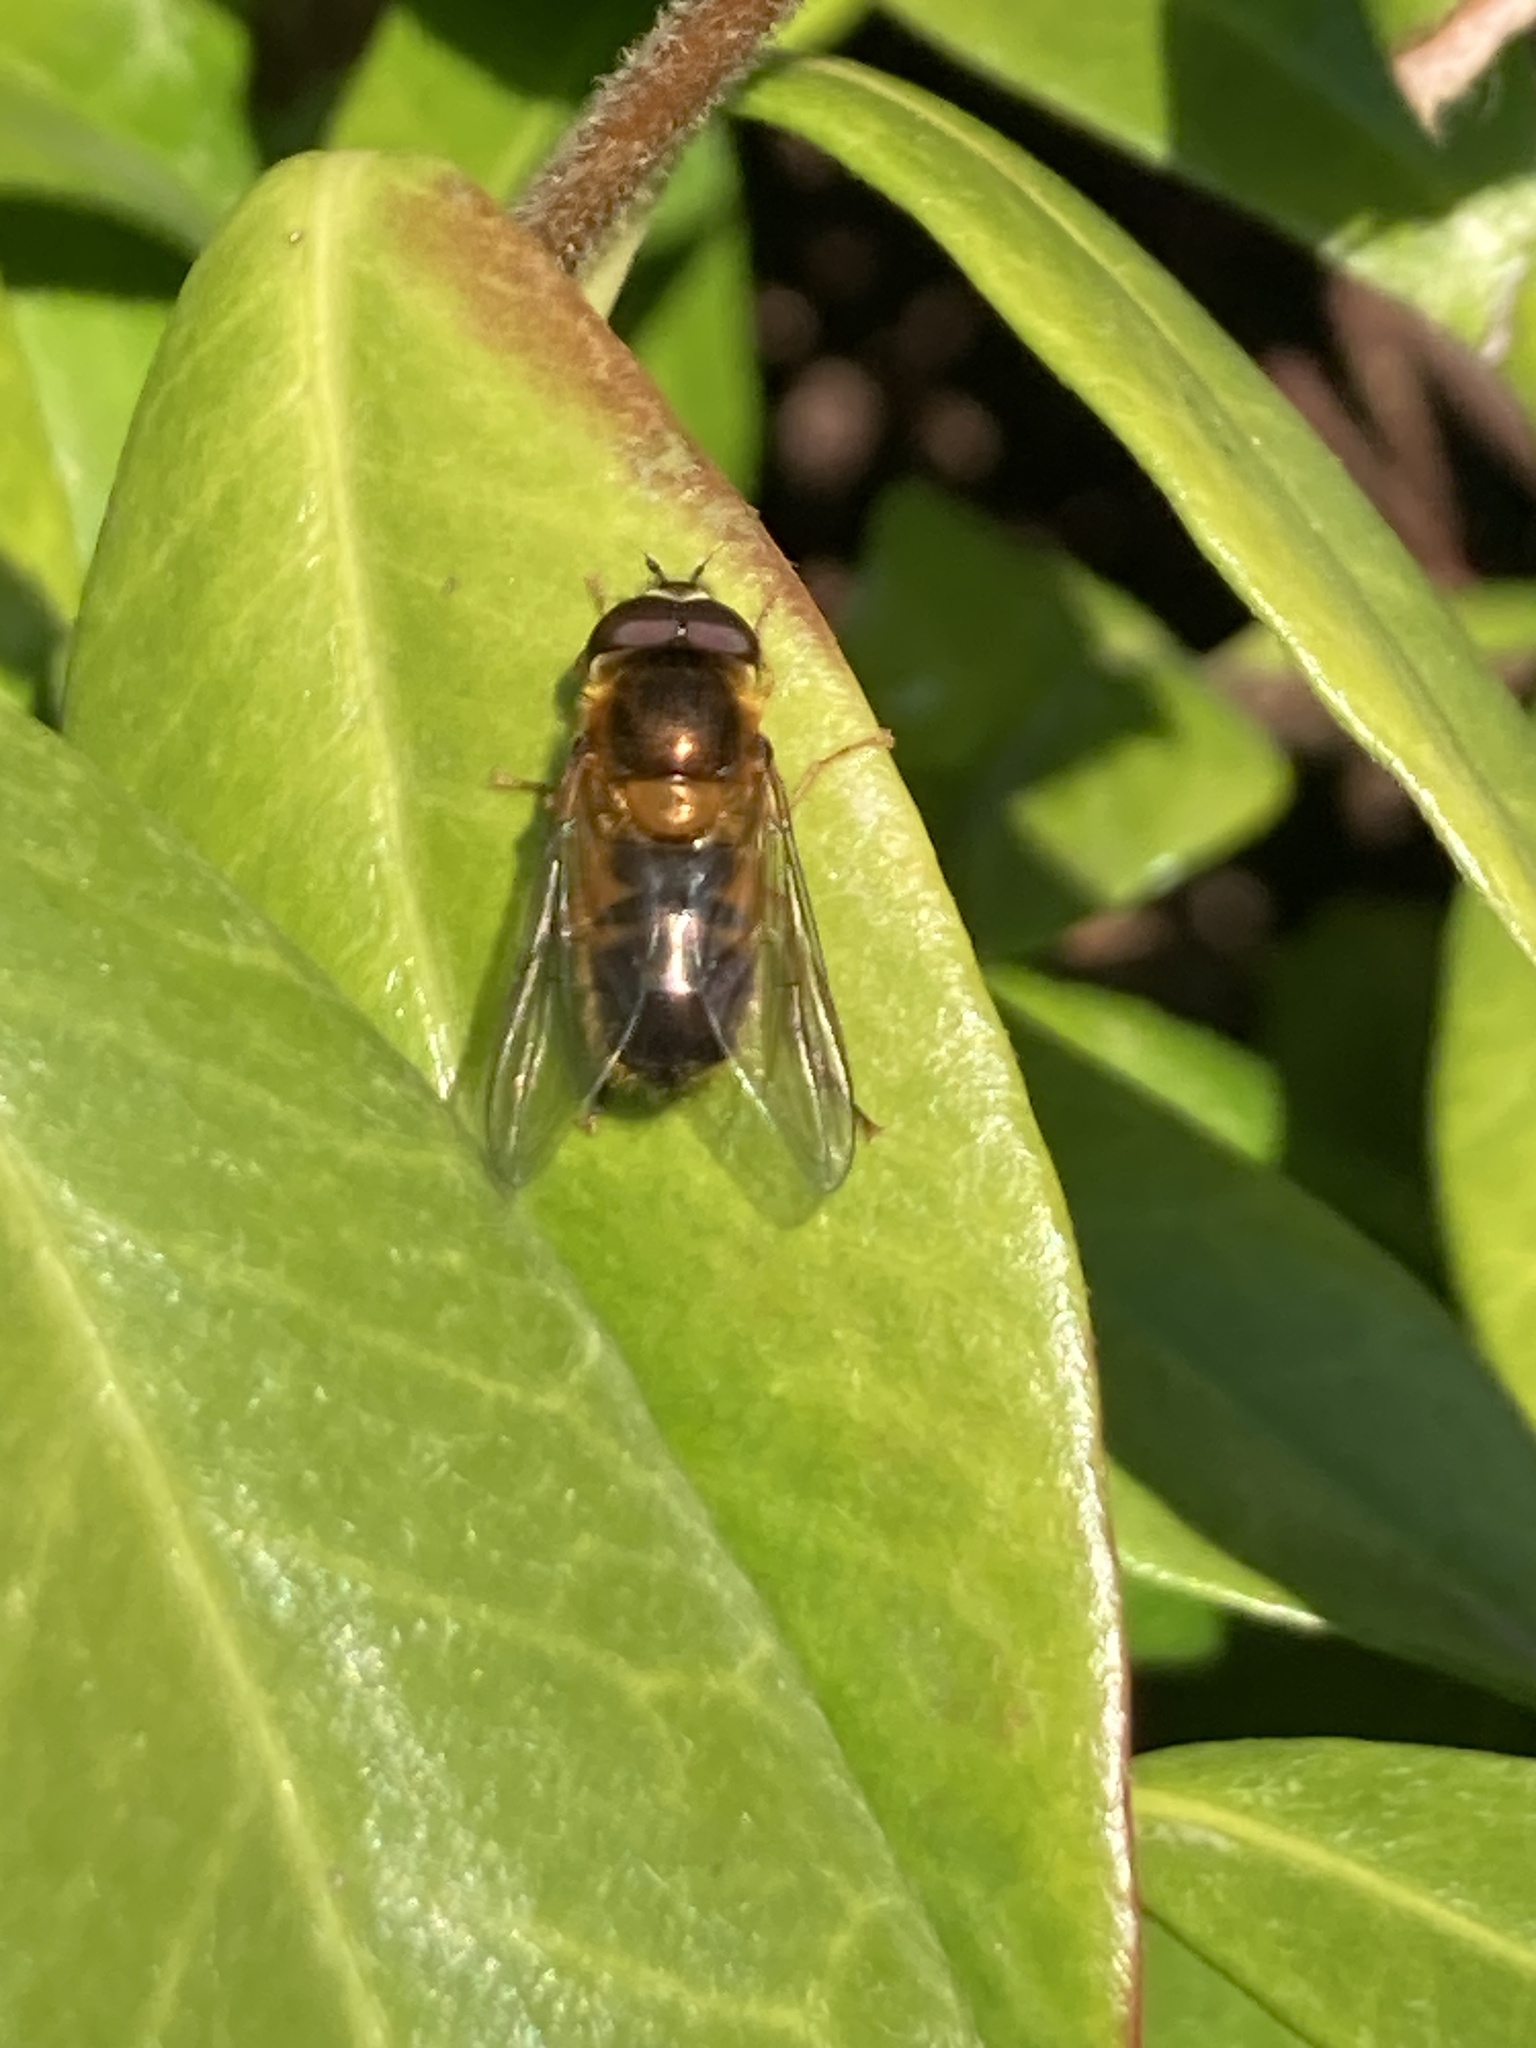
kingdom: Animalia
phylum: Arthropoda
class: Insecta
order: Diptera
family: Syrphidae
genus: Epistrophe
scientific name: Epistrophe eligans
